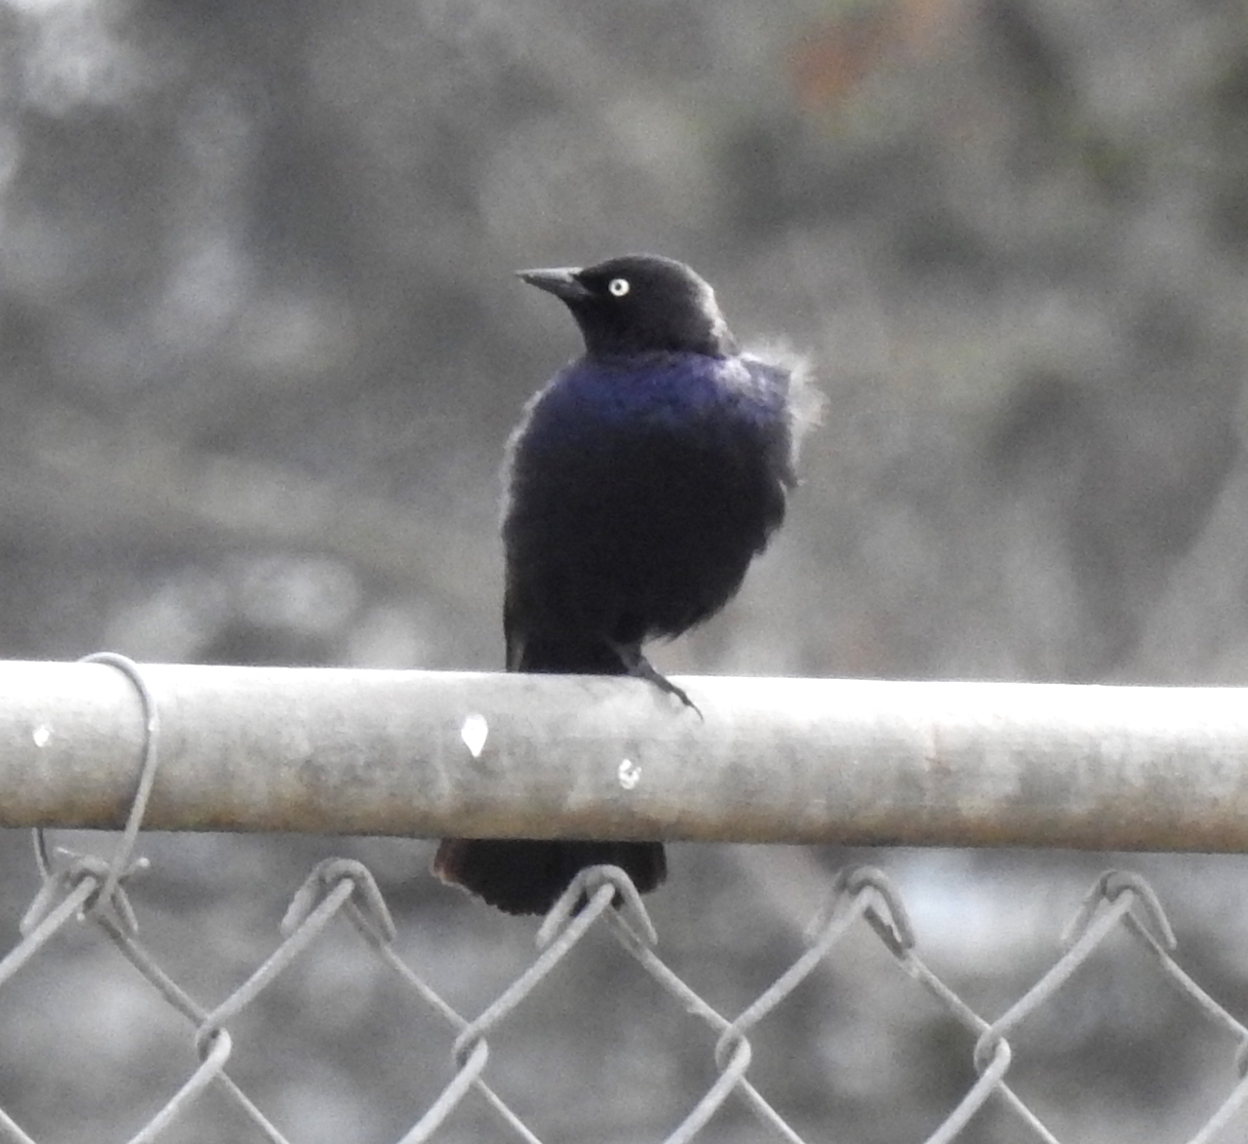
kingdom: Animalia
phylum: Chordata
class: Aves
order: Passeriformes
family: Icteridae
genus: Euphagus
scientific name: Euphagus cyanocephalus
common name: Brewer's blackbird
